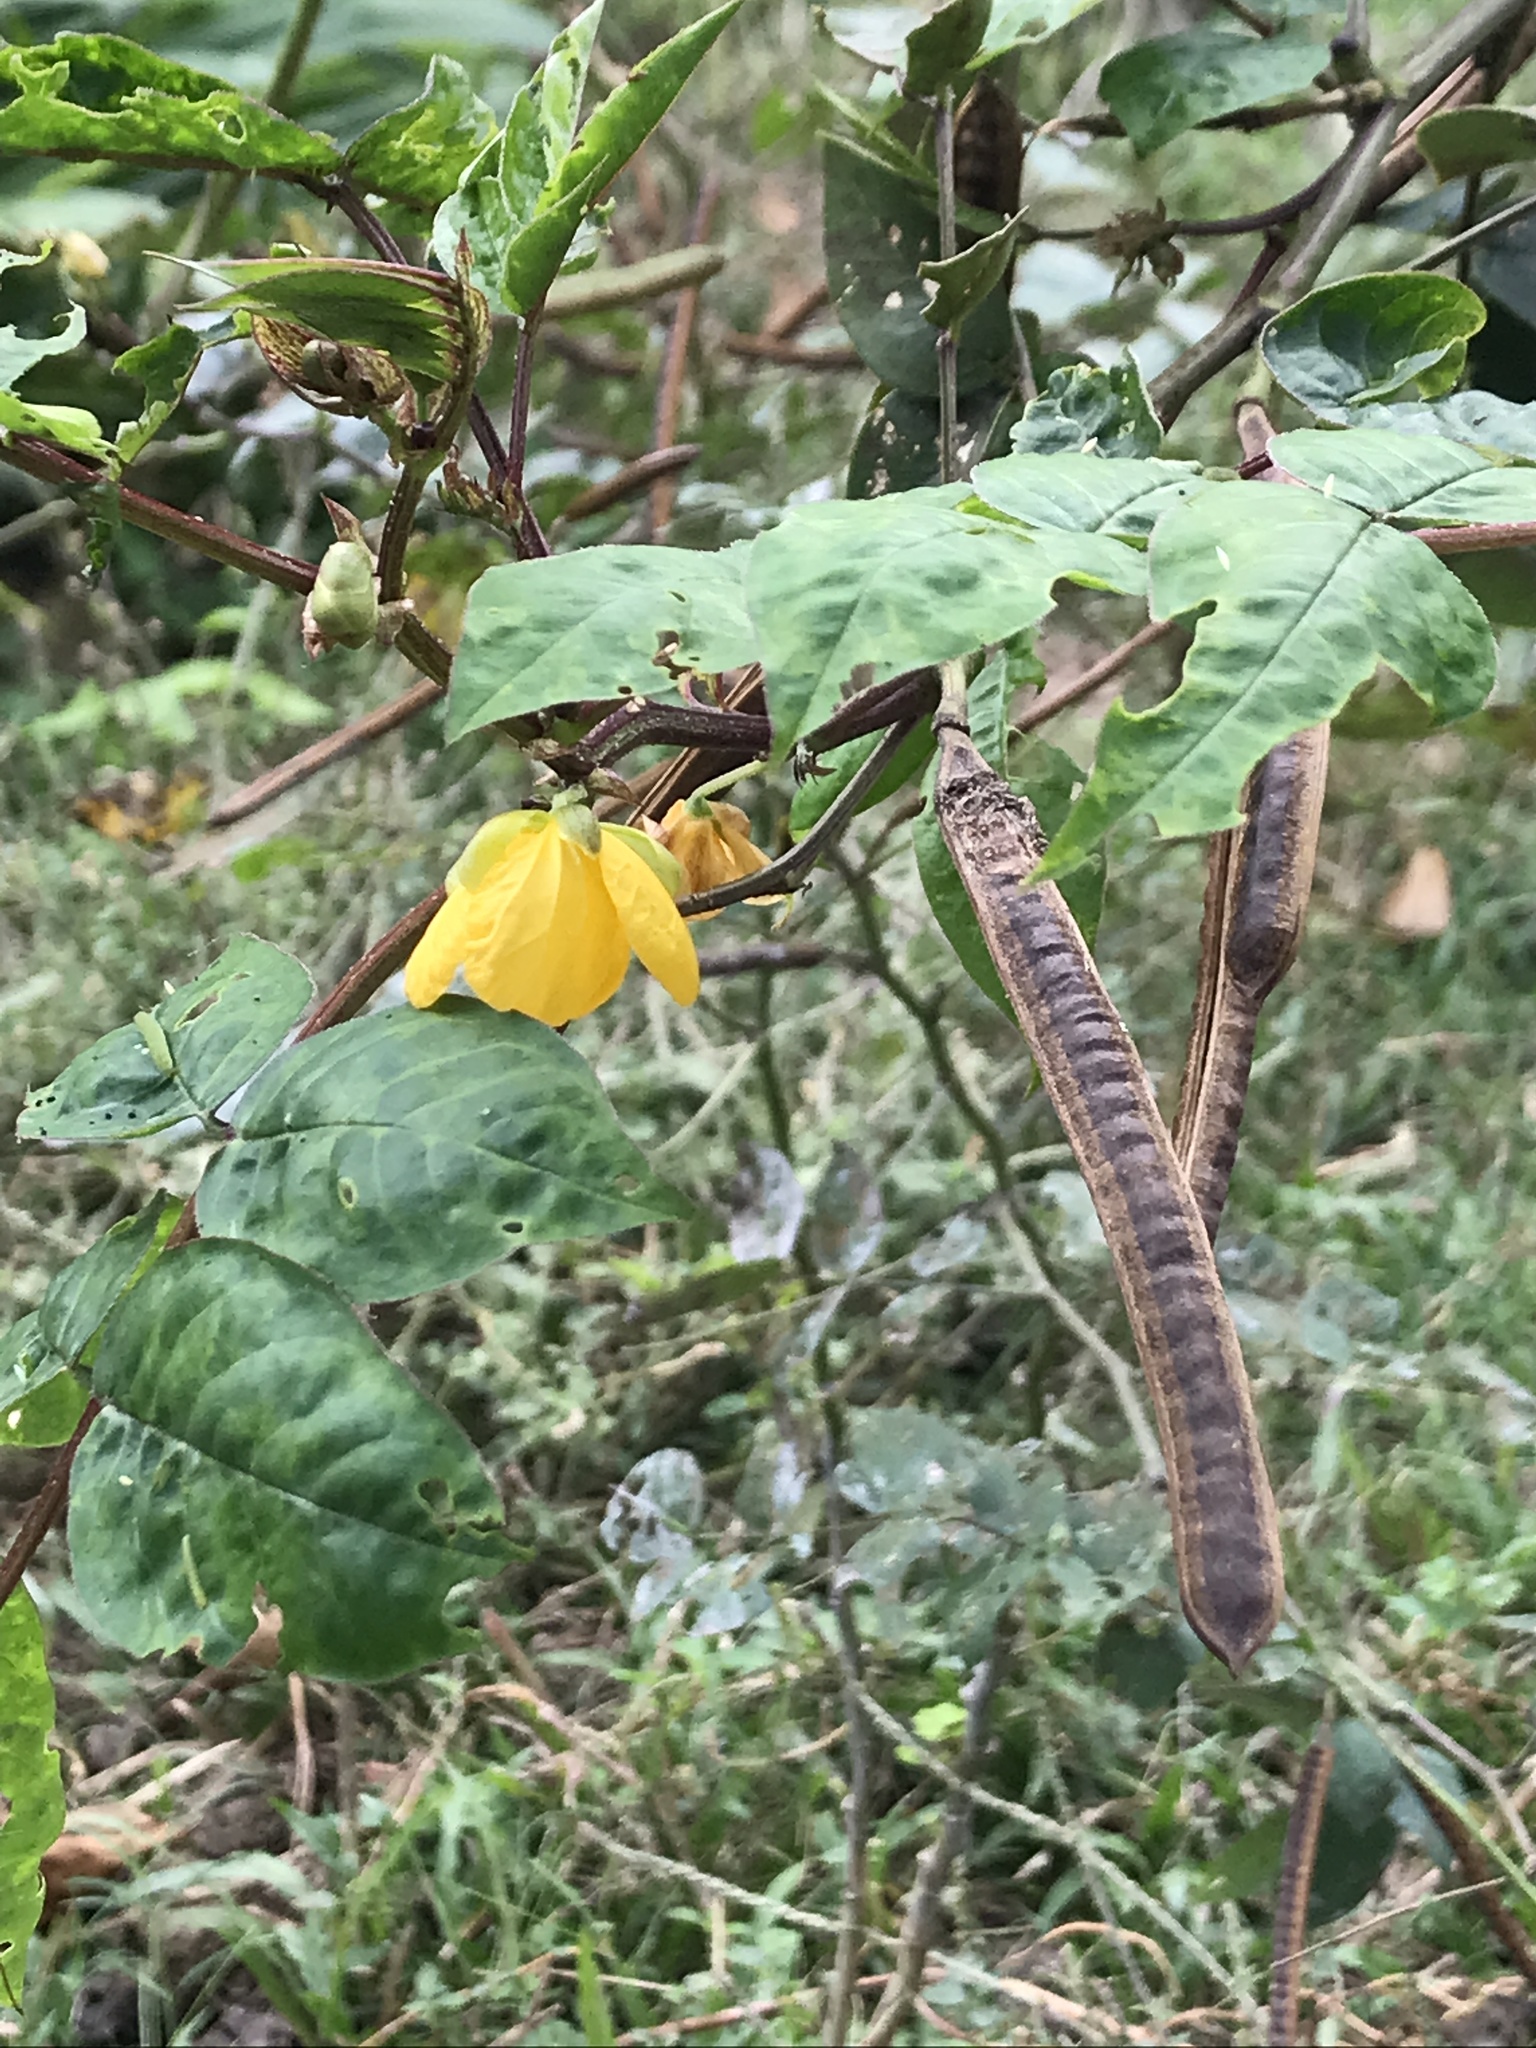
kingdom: Plantae
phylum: Tracheophyta
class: Magnoliopsida
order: Fabales
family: Fabaceae
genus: Senna
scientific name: Senna occidentalis
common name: Septicweed
